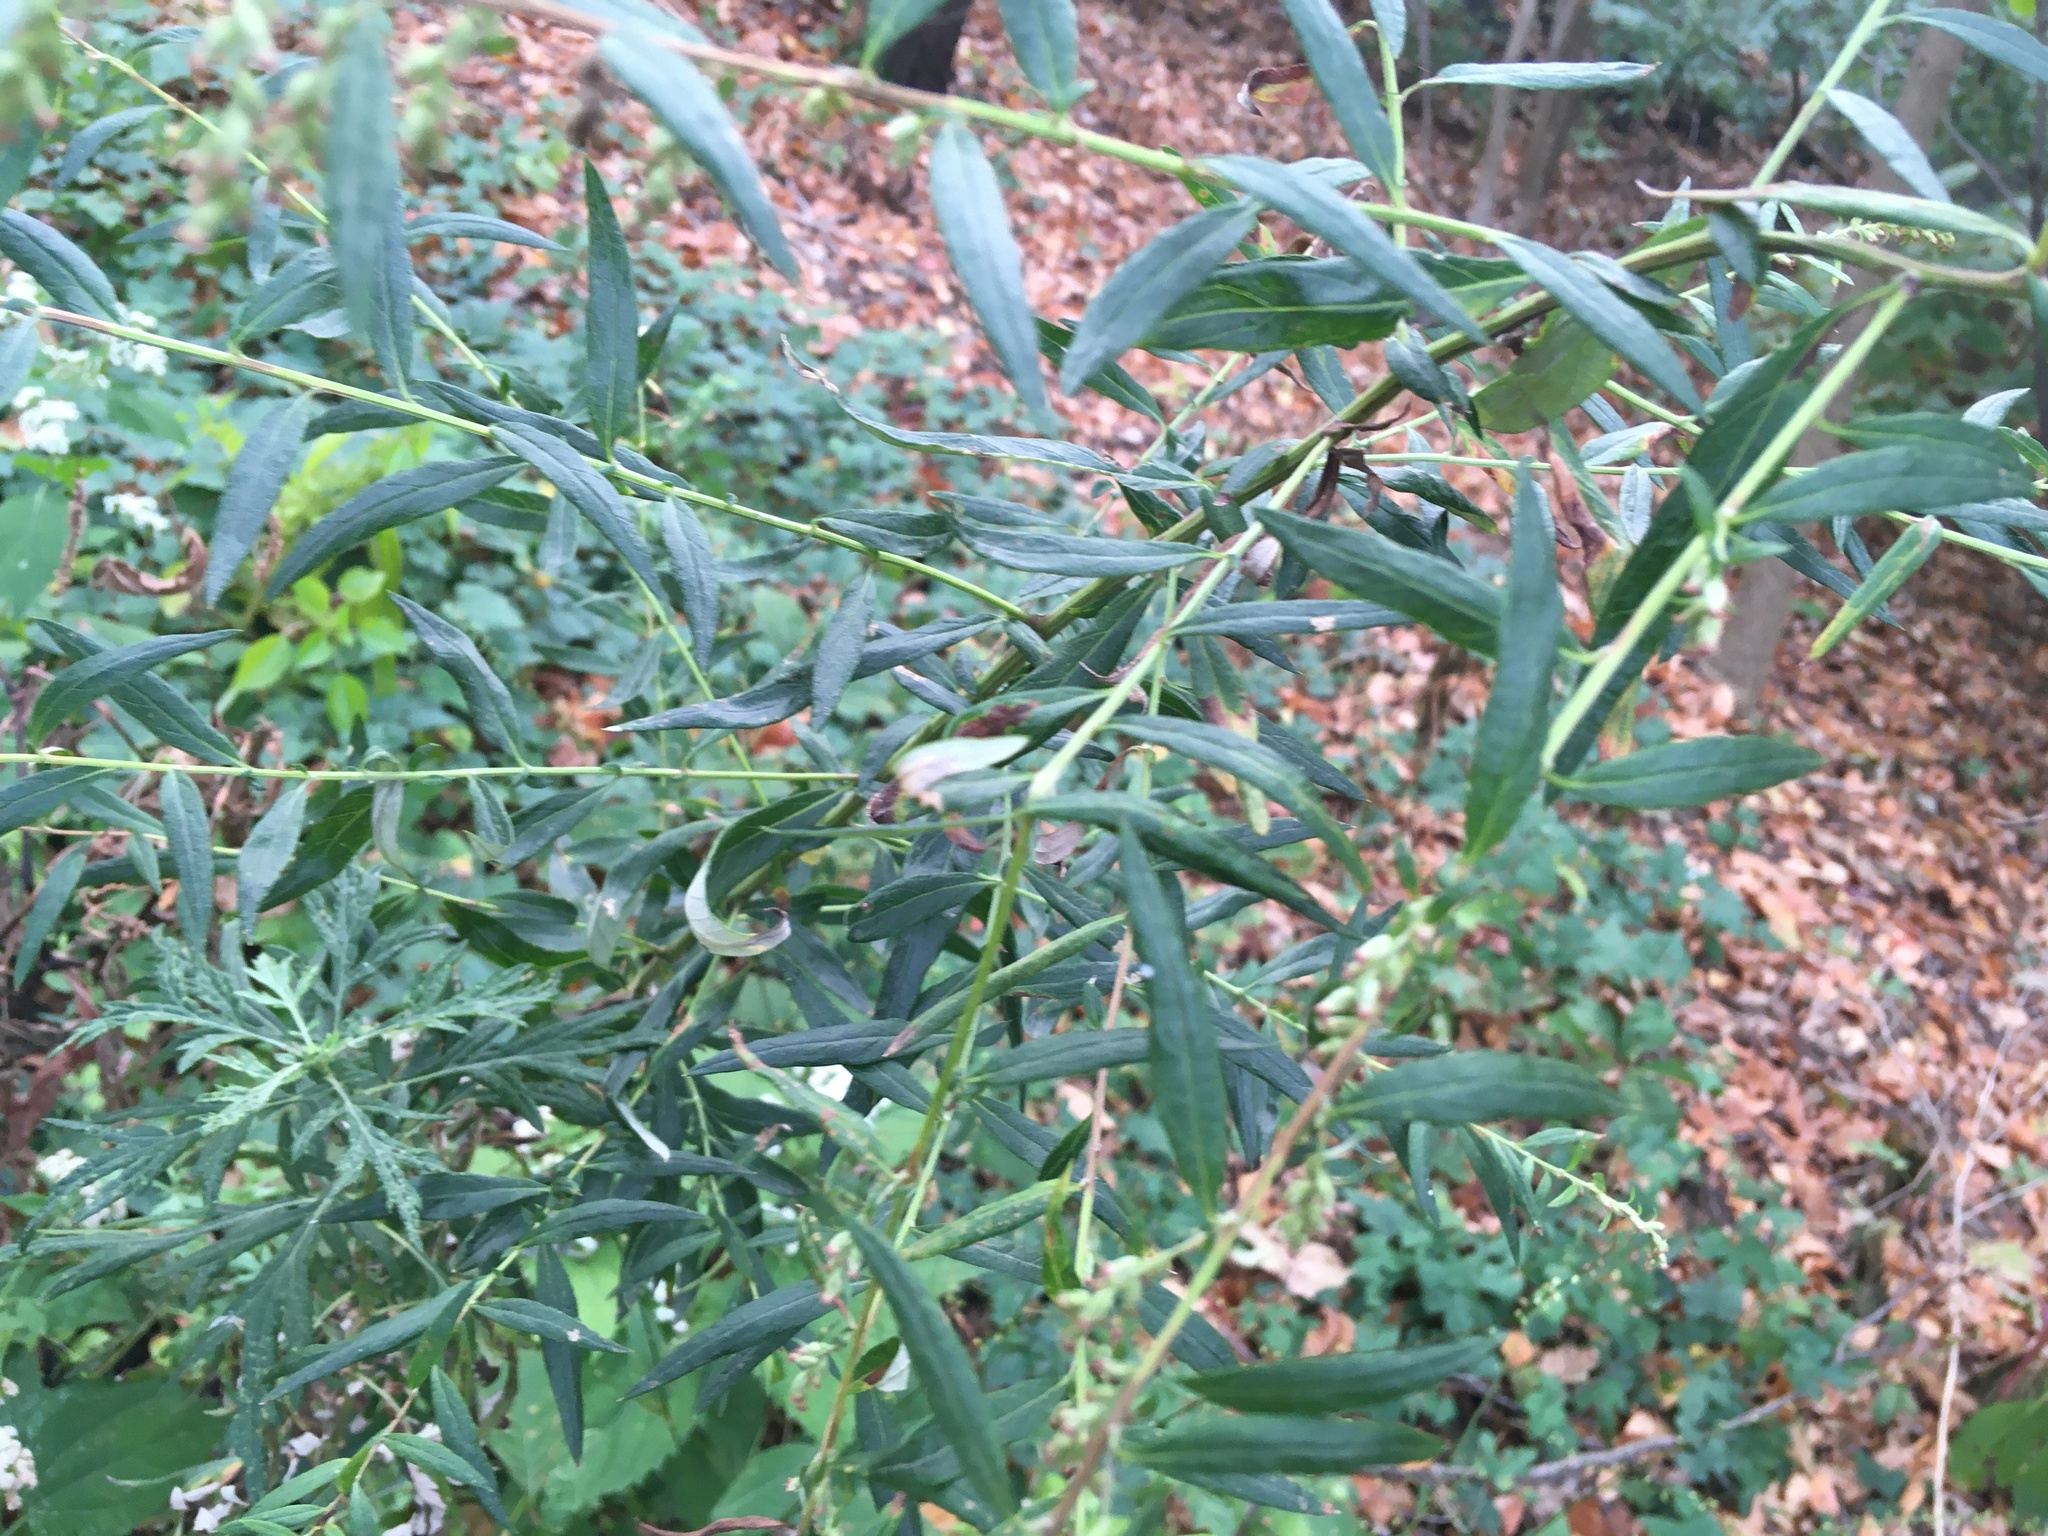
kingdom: Plantae
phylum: Tracheophyta
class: Magnoliopsida
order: Asterales
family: Asteraceae
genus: Artemisia
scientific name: Artemisia vulgaris
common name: Mugwort
